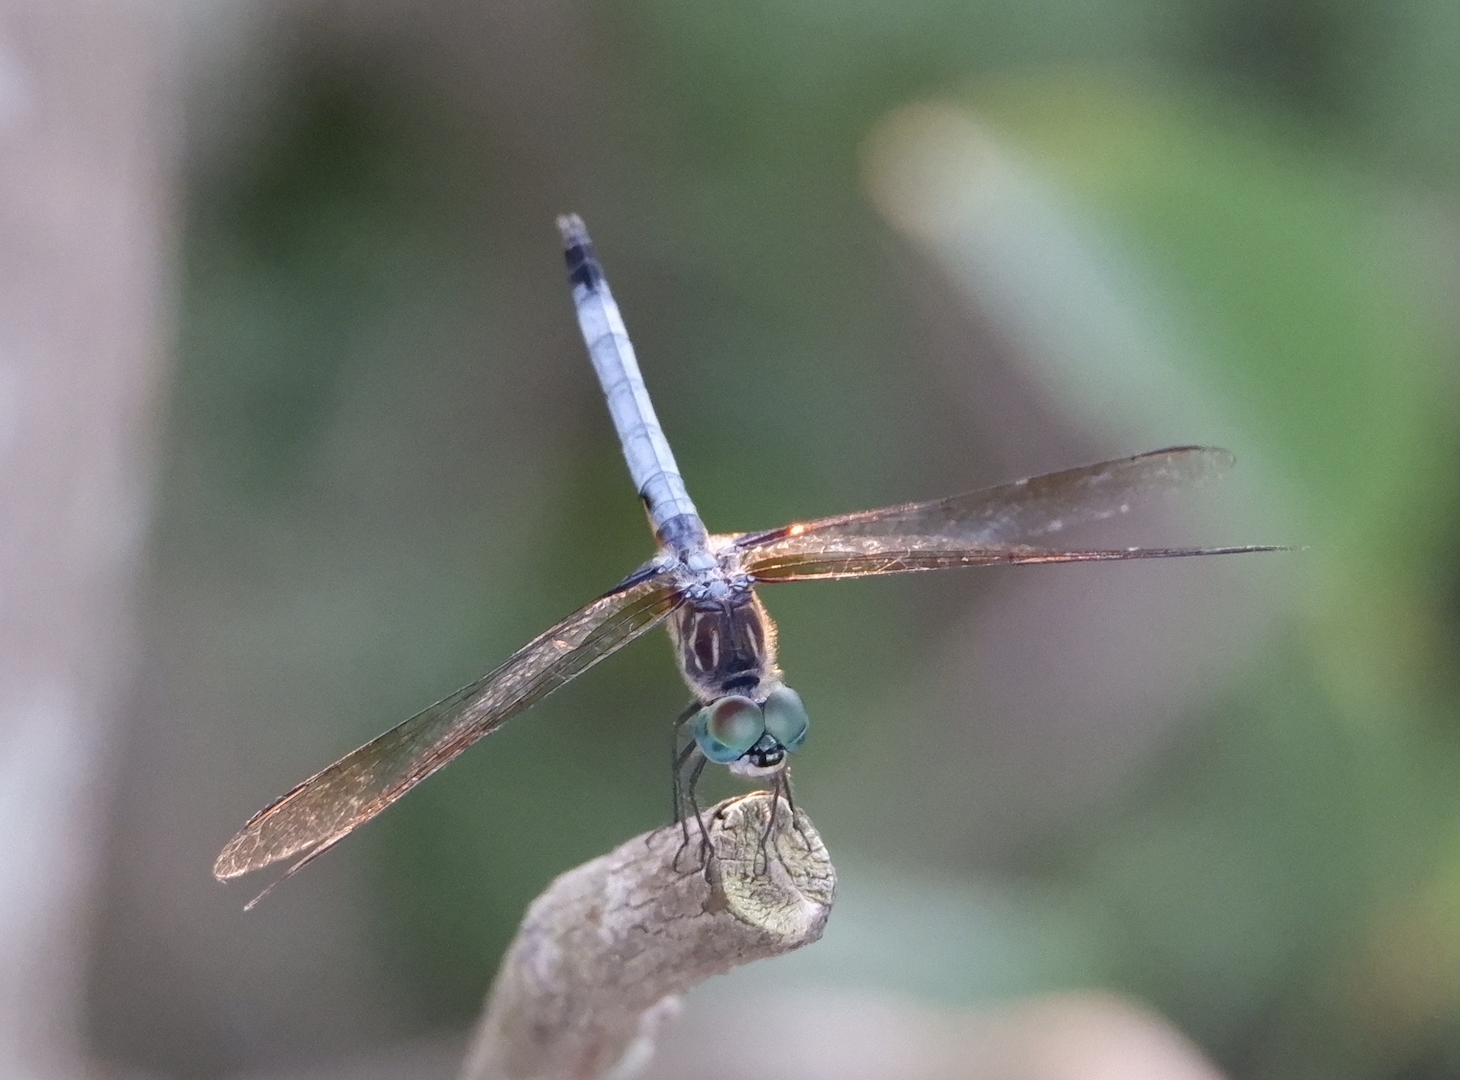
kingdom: Animalia
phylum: Arthropoda
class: Insecta
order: Odonata
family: Libellulidae
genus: Pachydiplax
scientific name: Pachydiplax longipennis
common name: Blue dasher
